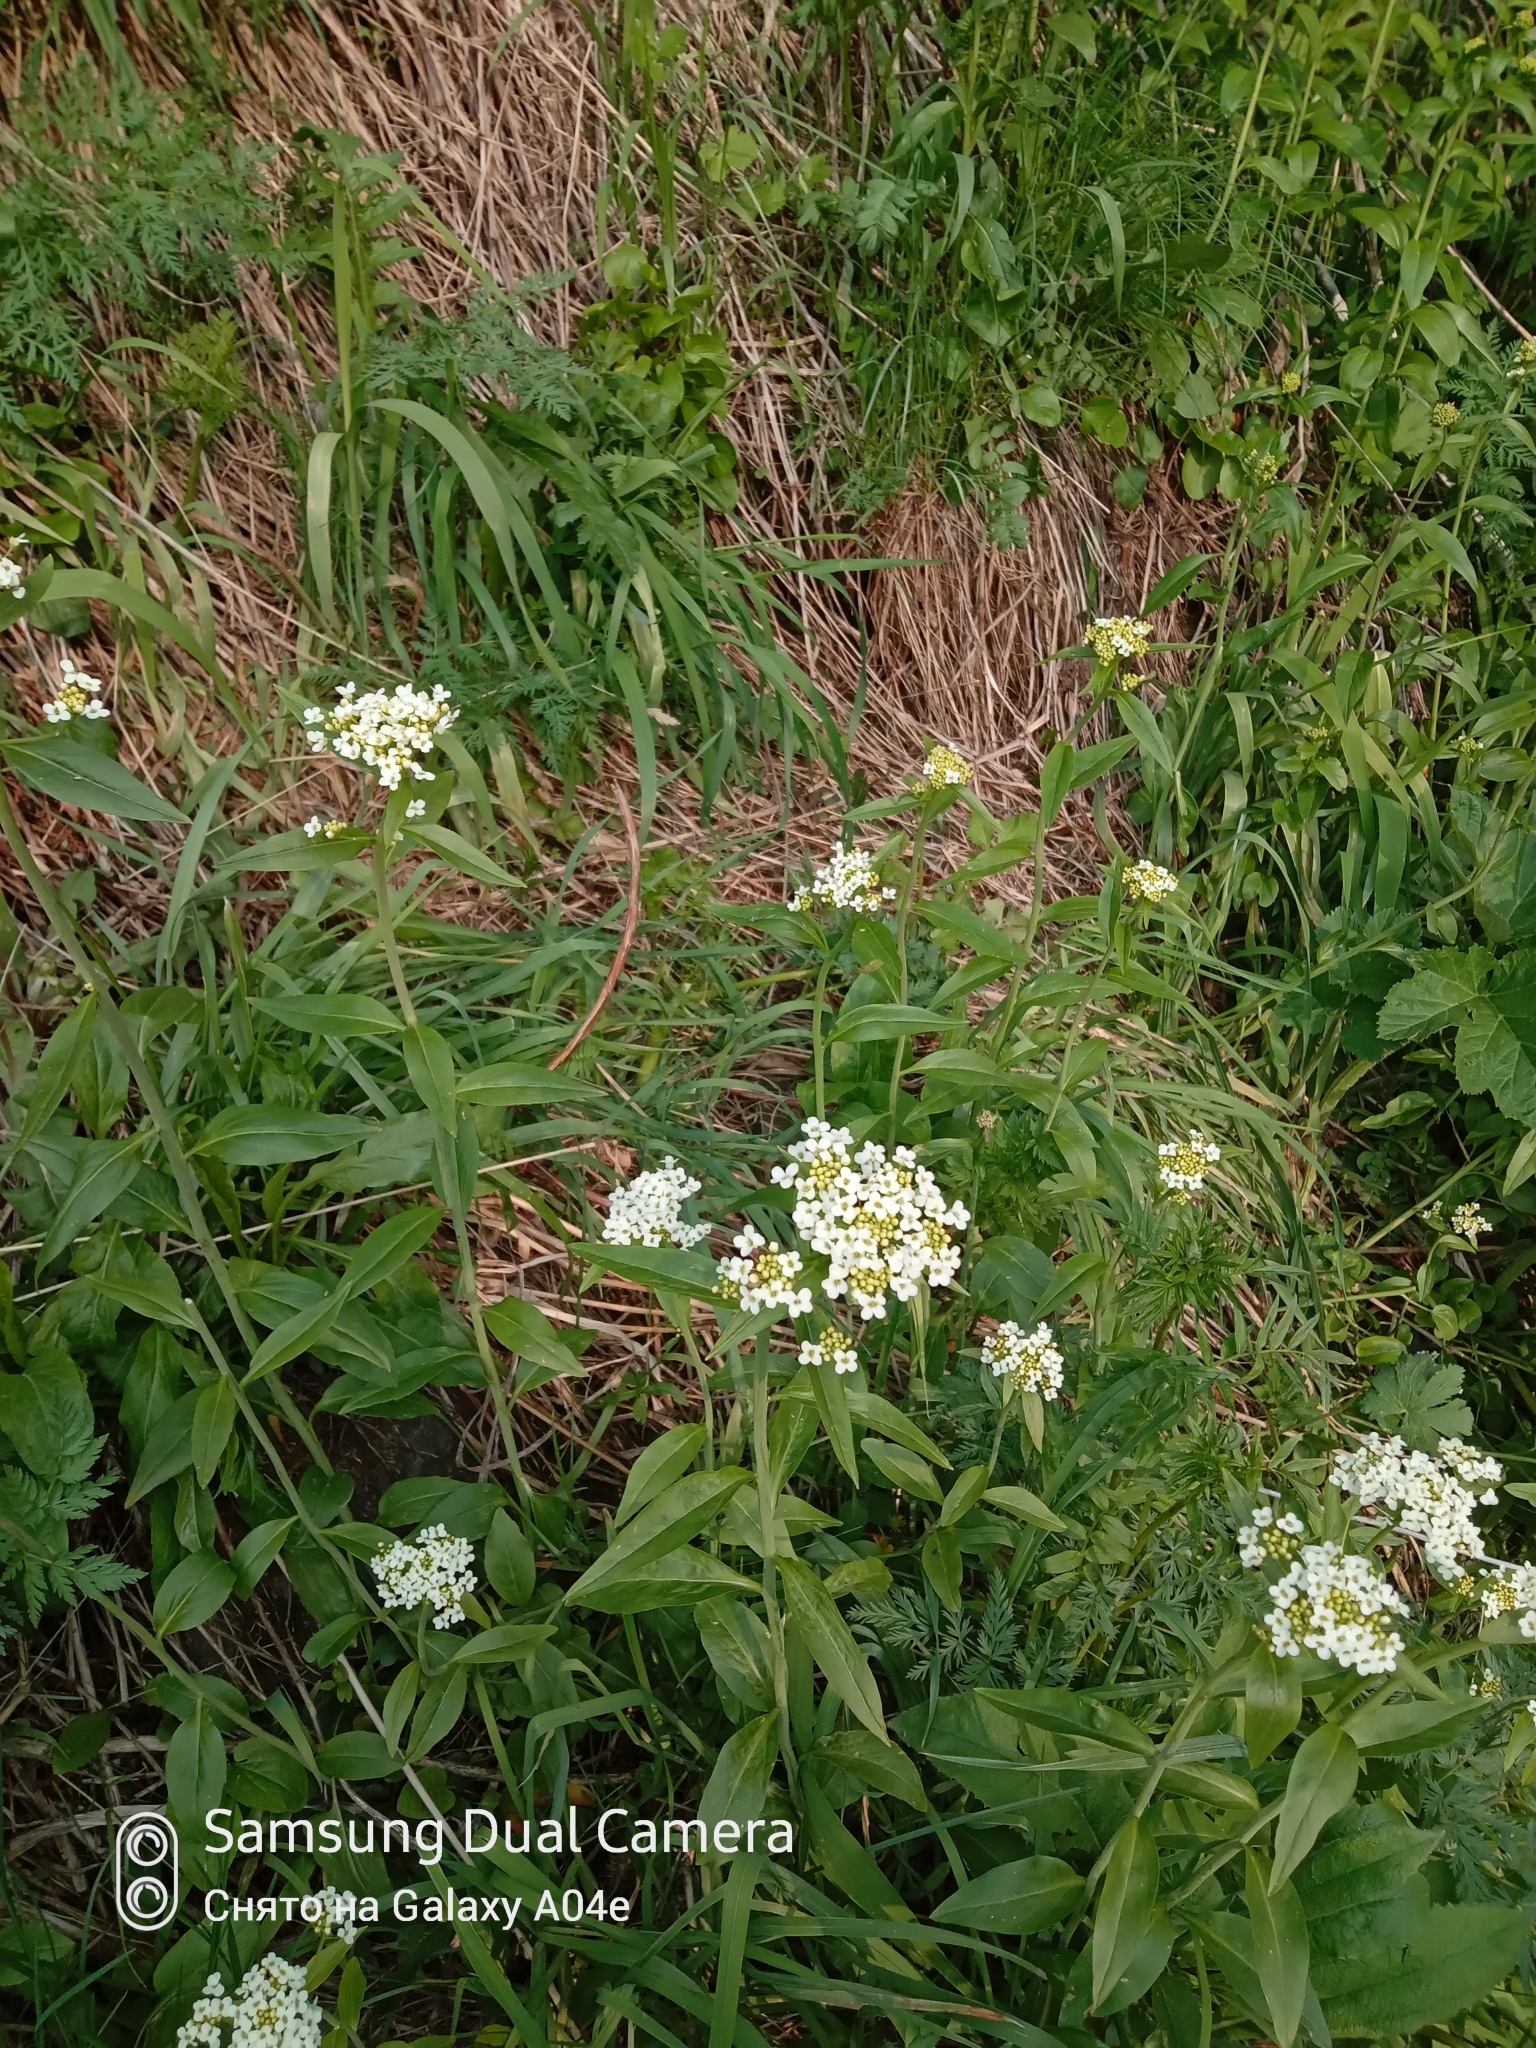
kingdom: Plantae
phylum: Tracheophyta
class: Magnoliopsida
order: Brassicales
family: Brassicaceae
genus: Eutrema
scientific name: Eutrema integrifolium
